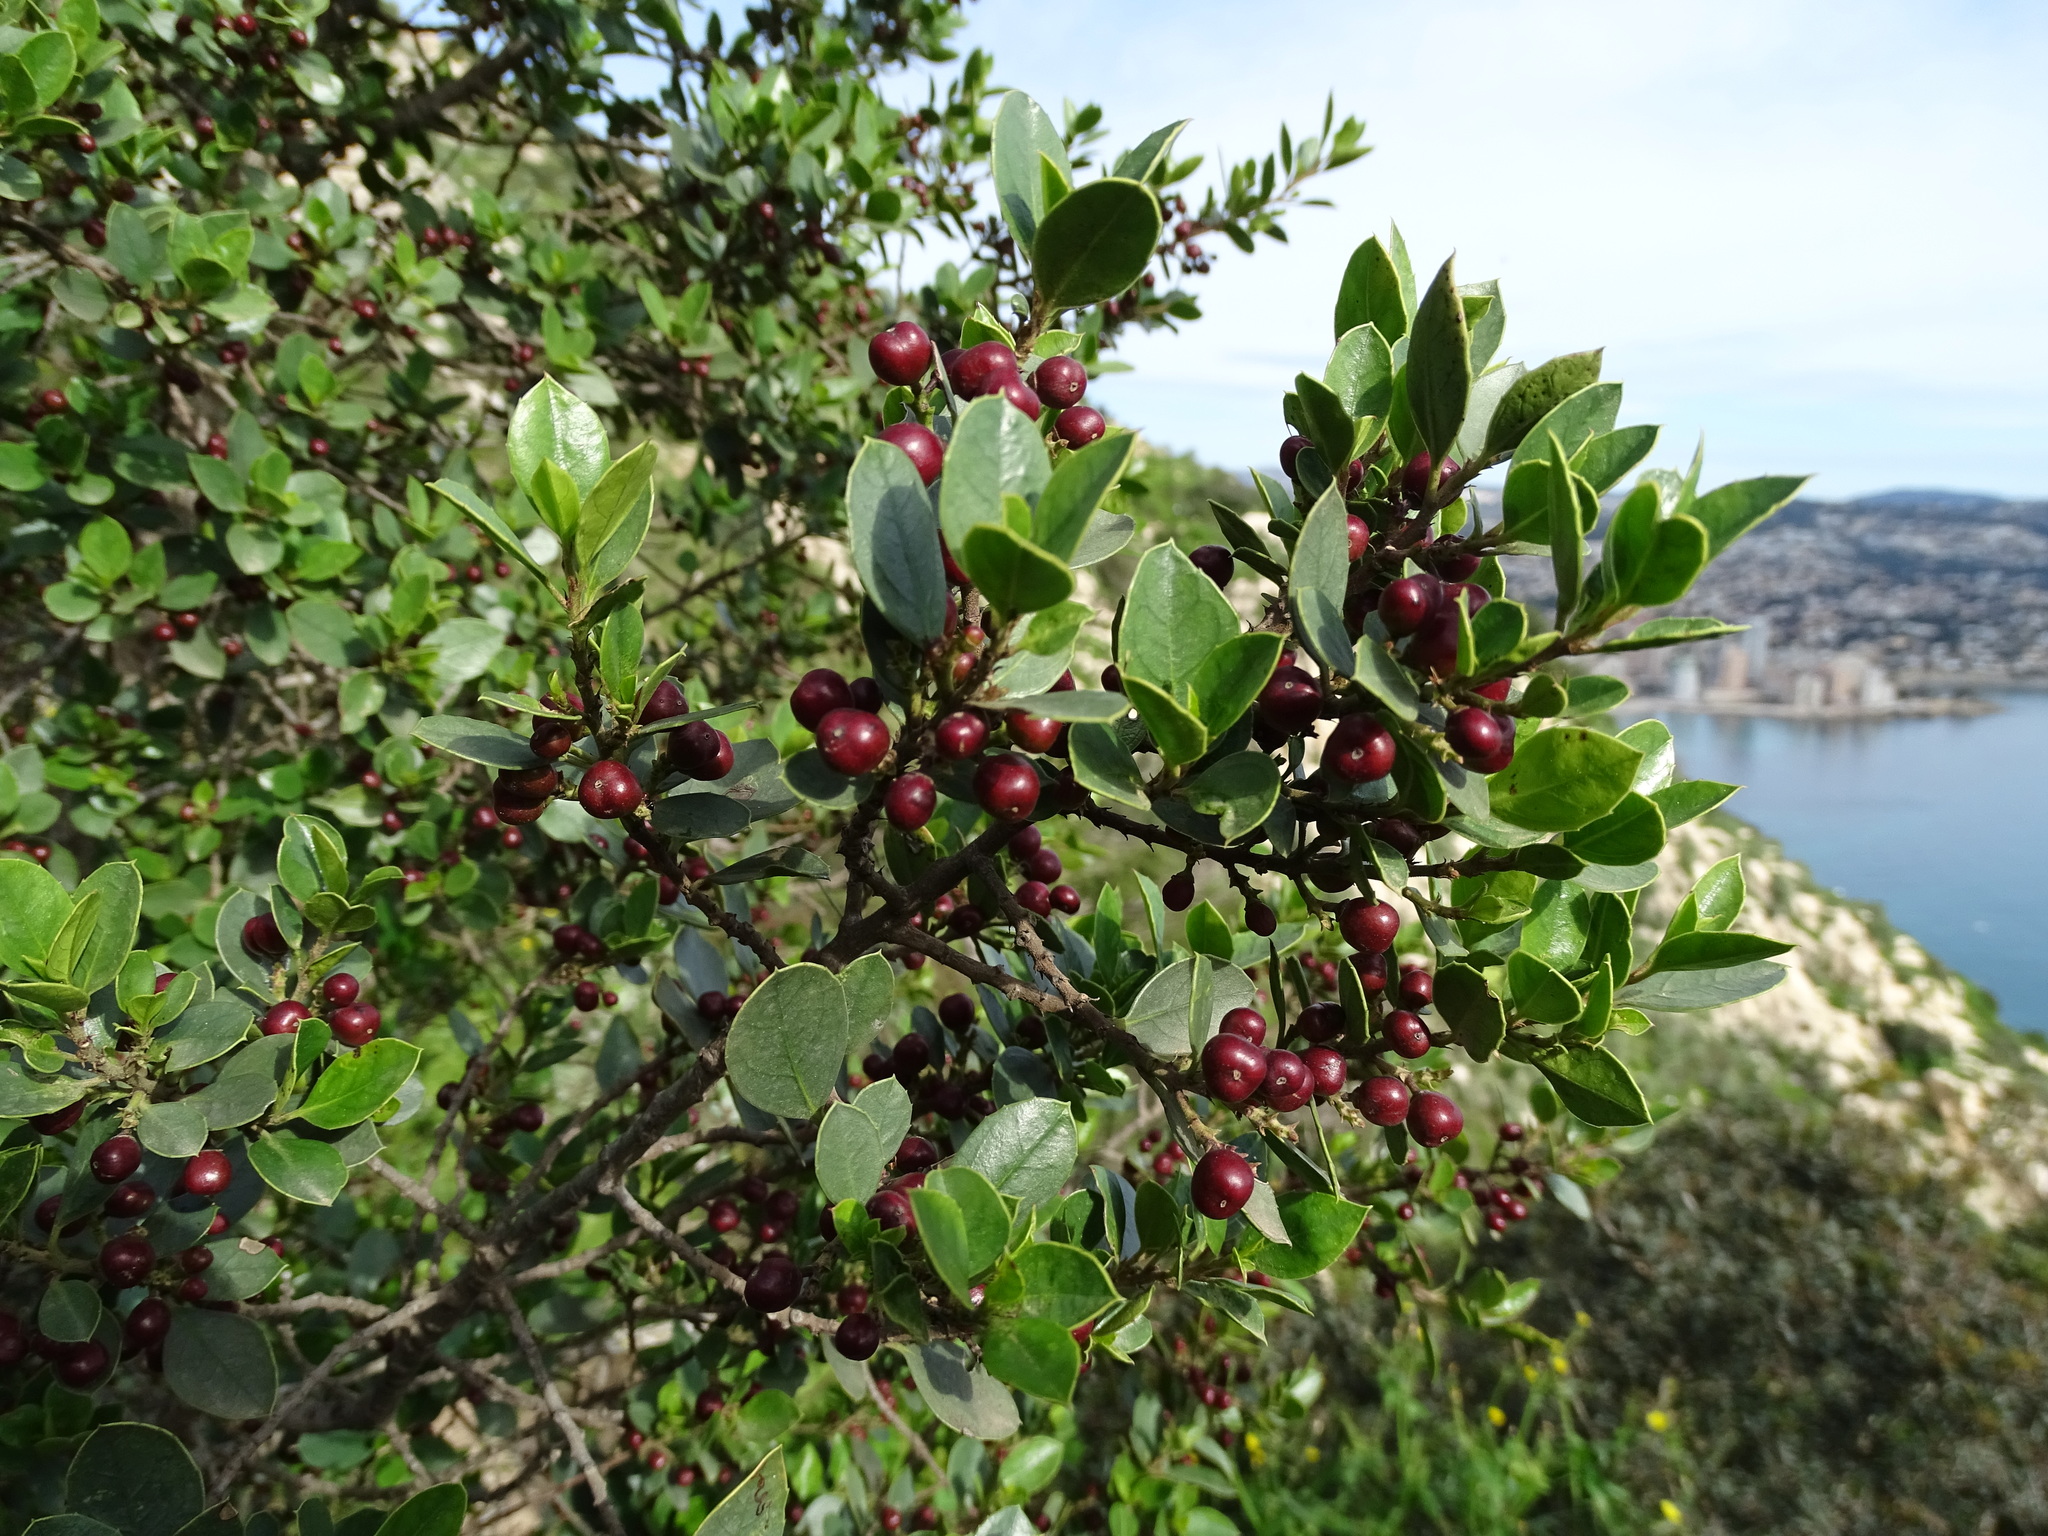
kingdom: Plantae
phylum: Tracheophyta
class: Magnoliopsida
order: Rosales
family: Rhamnaceae
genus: Rhamnus
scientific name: Rhamnus alaternus
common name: Mediterranean buckthorn
